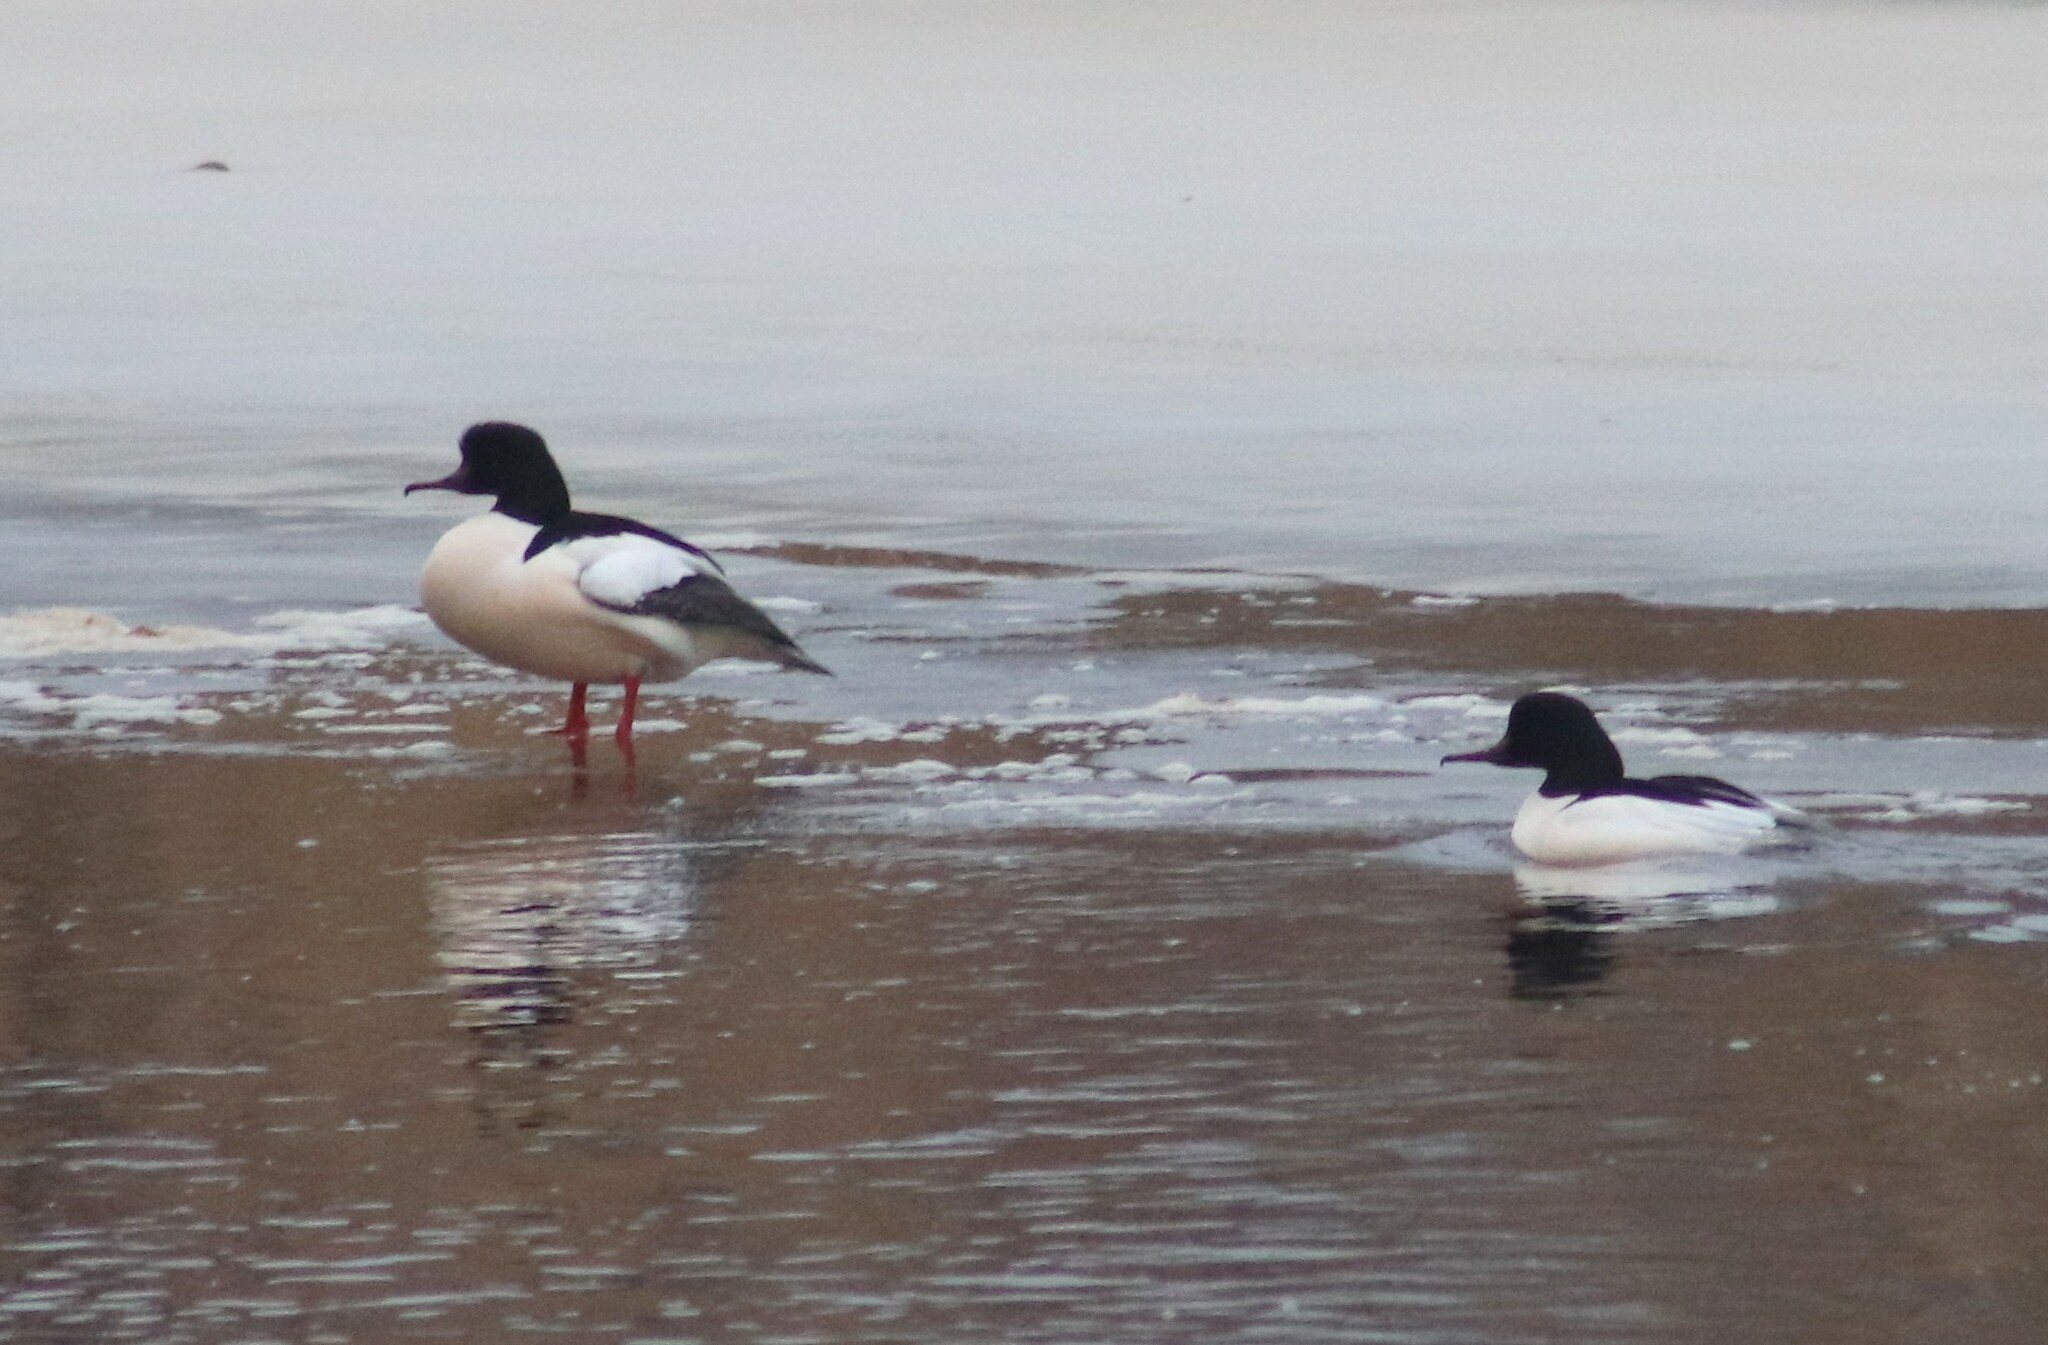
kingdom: Animalia
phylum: Chordata
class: Aves
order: Anseriformes
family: Anatidae
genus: Mergus
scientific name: Mergus merganser
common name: Common merganser
